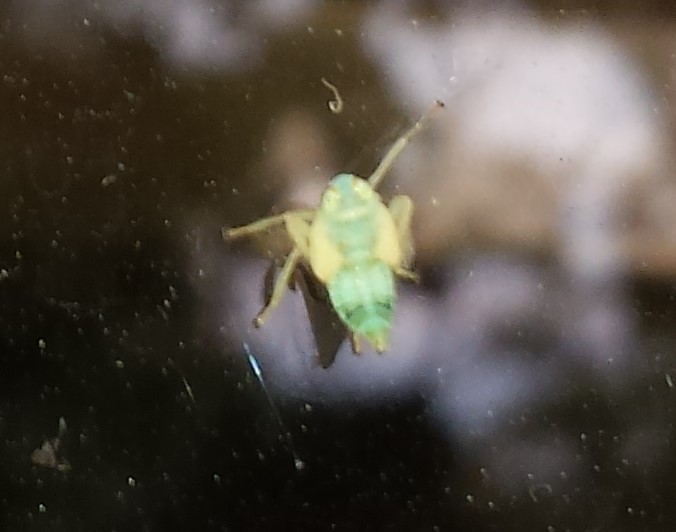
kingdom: Animalia
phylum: Arthropoda
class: Insecta
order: Hemiptera
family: Cicadellidae
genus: Jikradia
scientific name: Jikradia olitoria
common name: Coppery leafhopper
